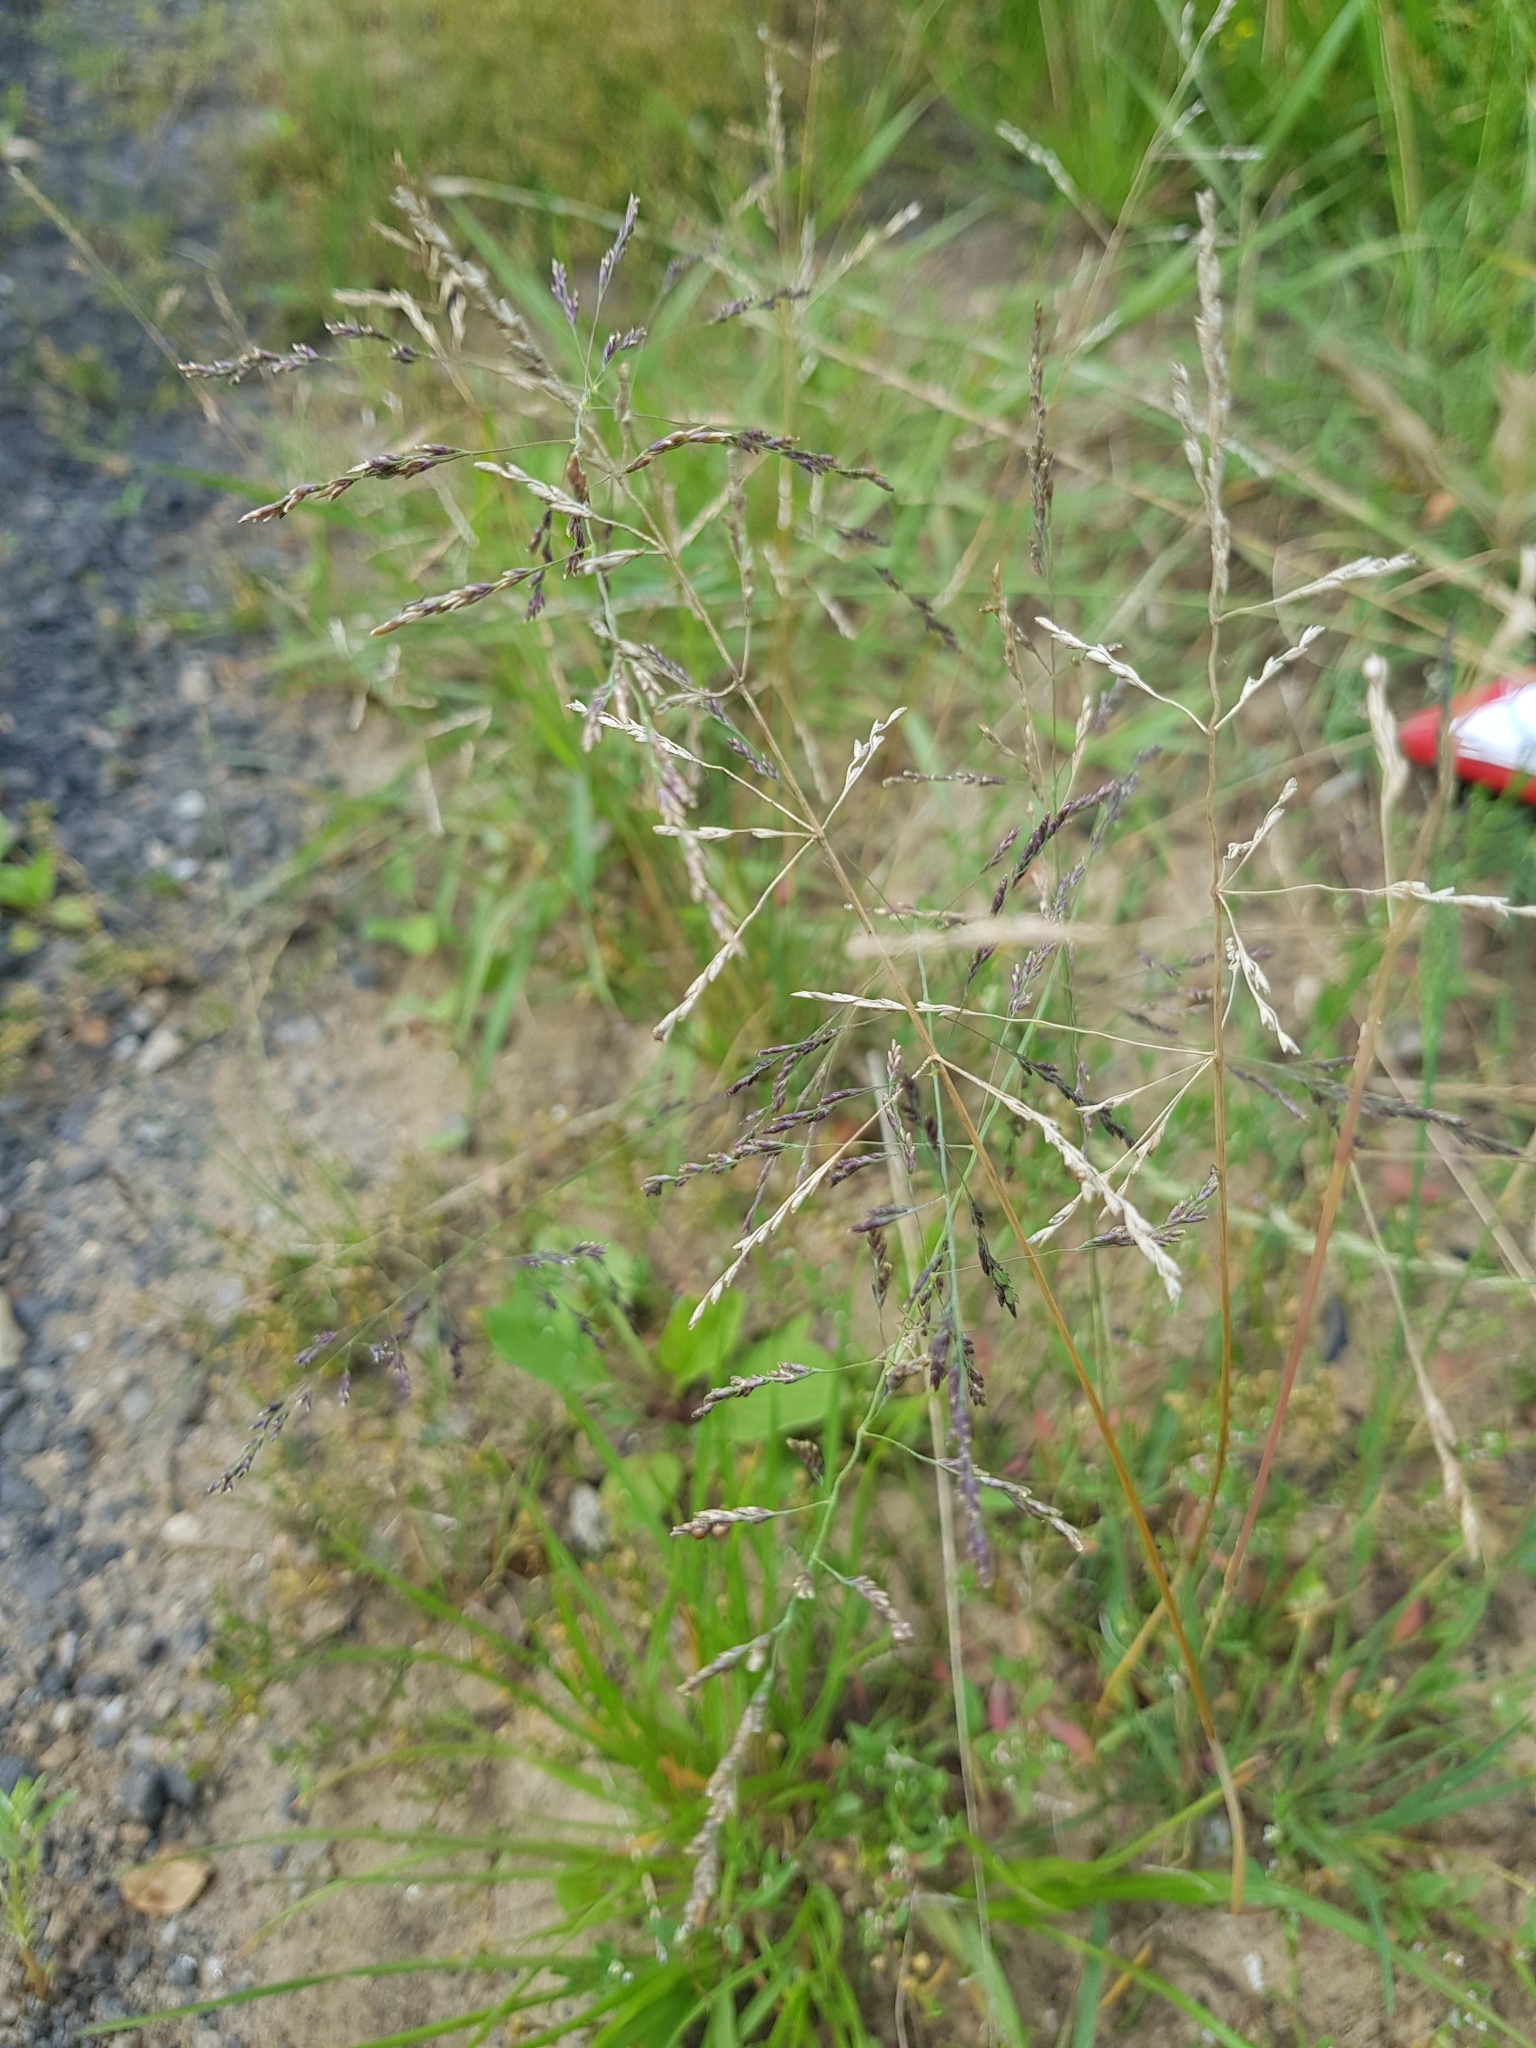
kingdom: Plantae
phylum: Tracheophyta
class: Liliopsida
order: Poales
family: Poaceae
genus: Puccinellia
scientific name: Puccinellia distans
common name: Weeping alkaligrass
